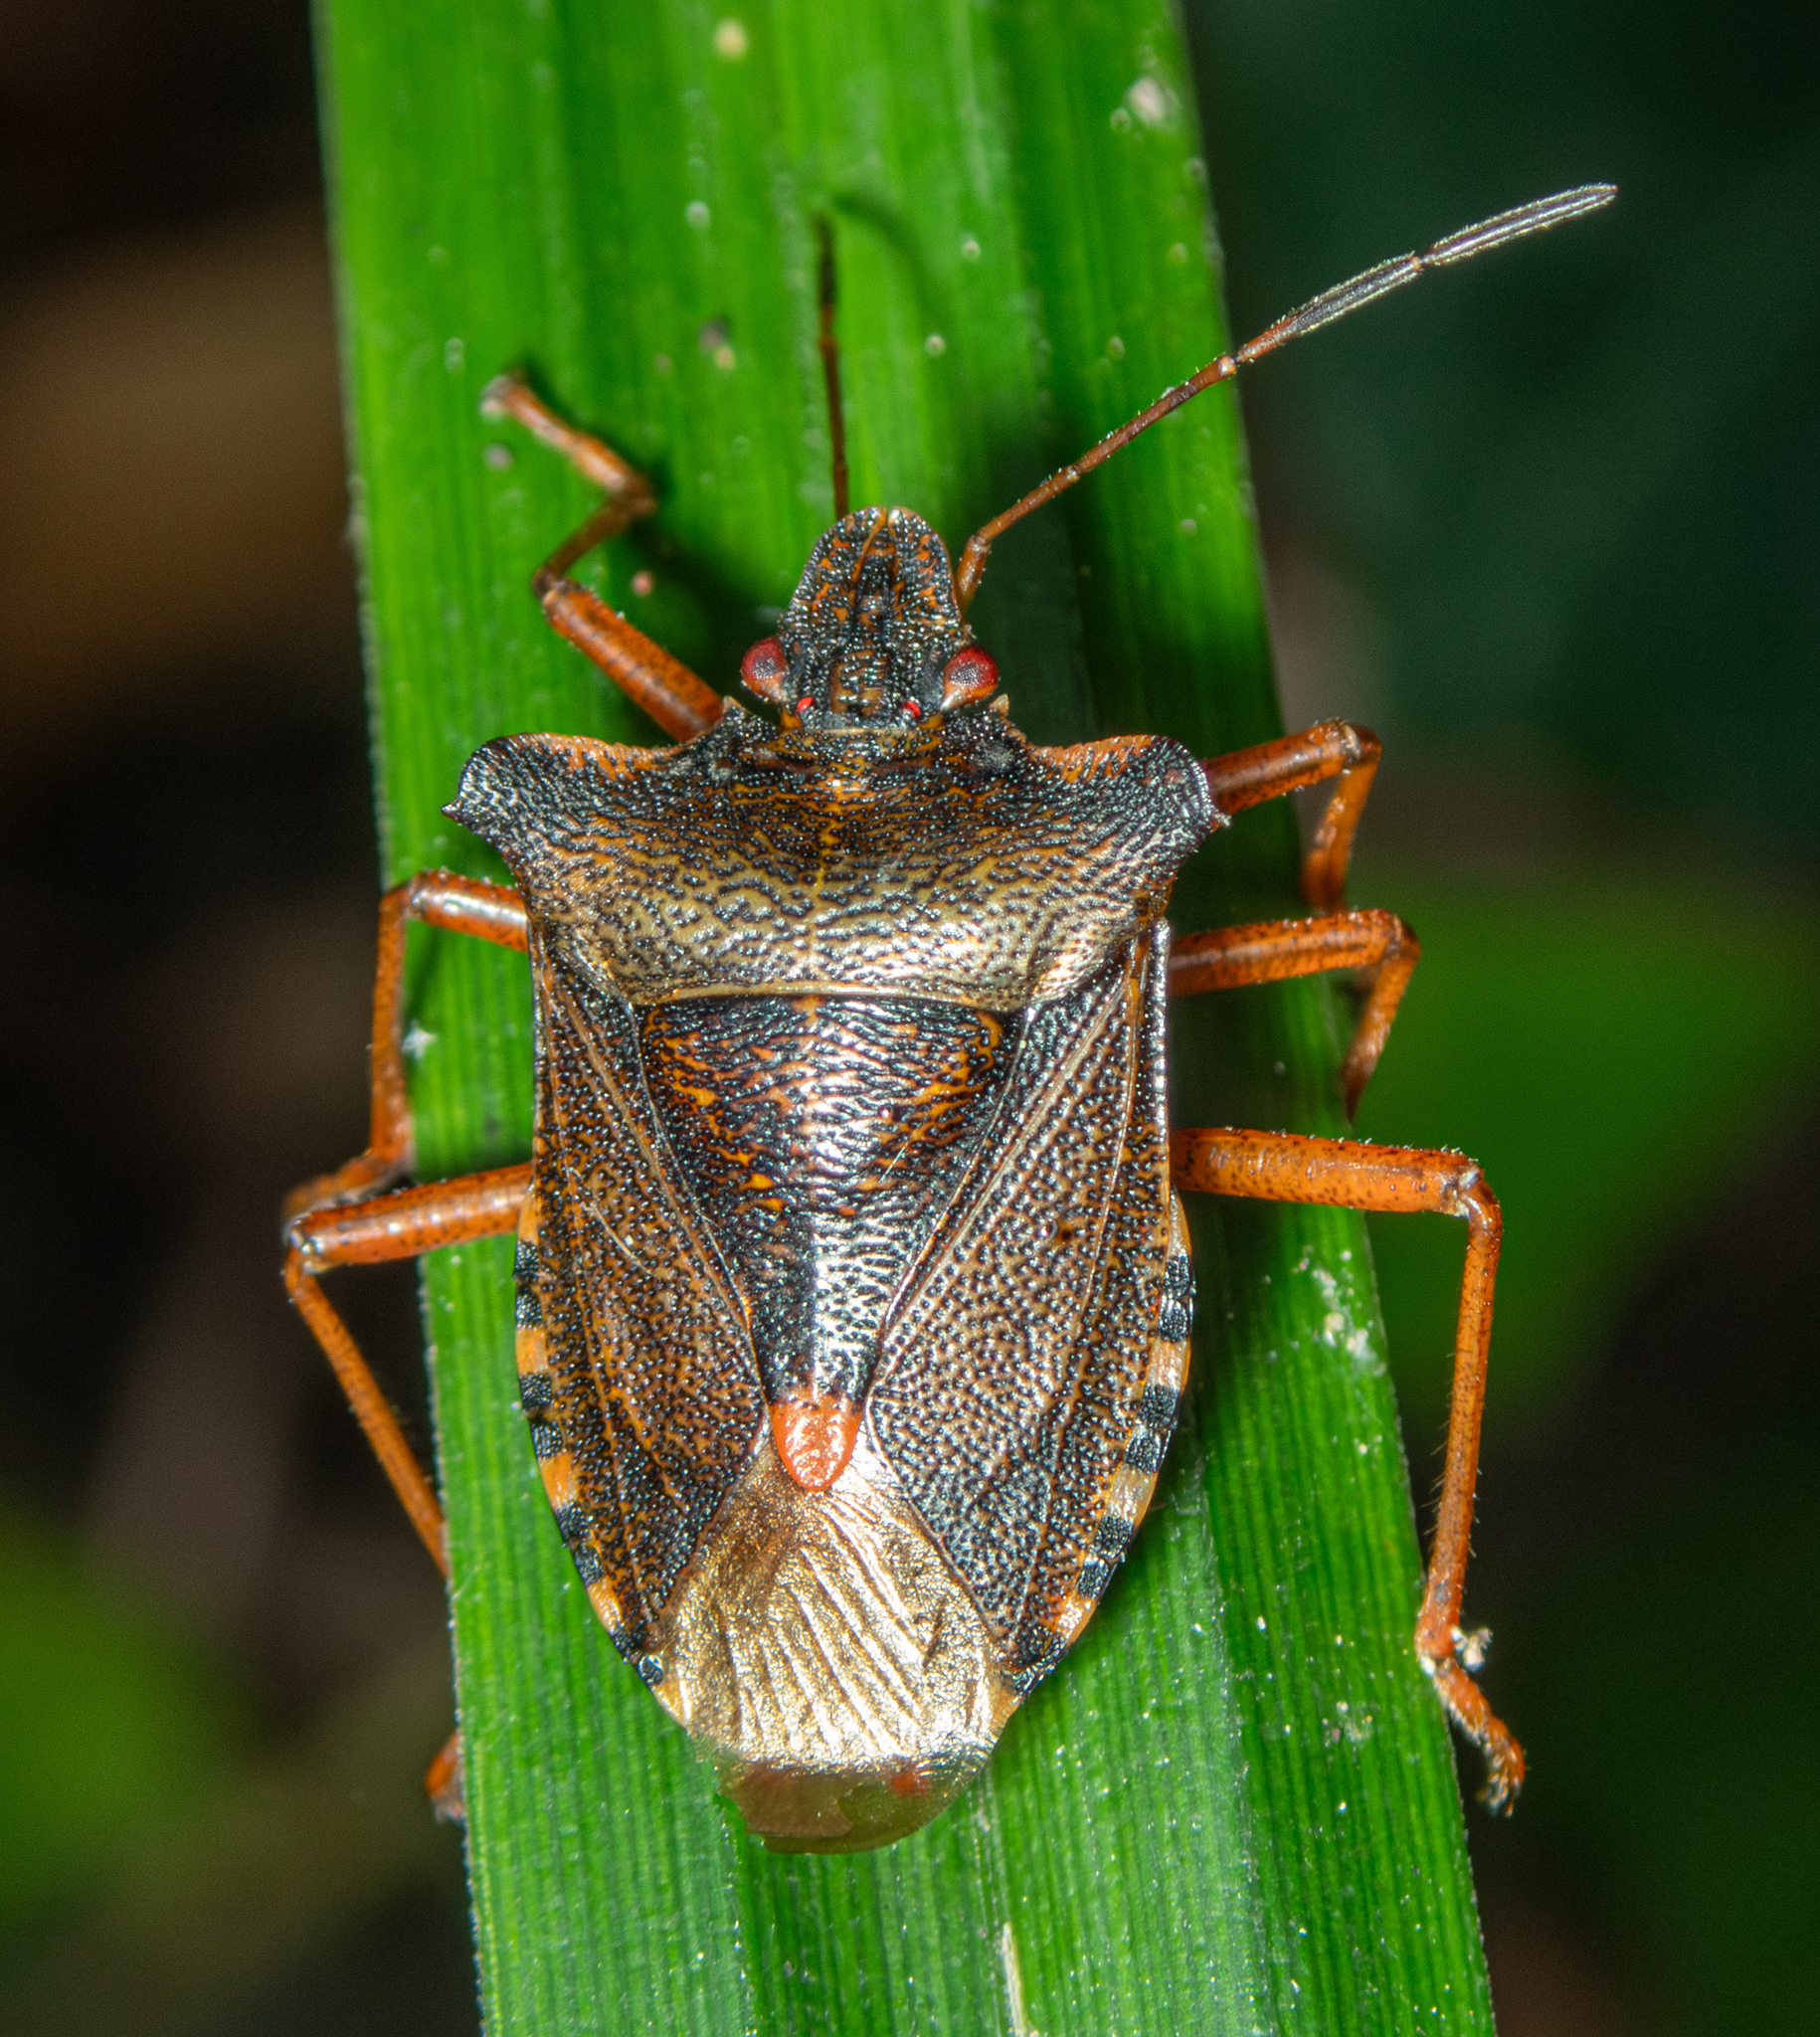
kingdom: Animalia
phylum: Arthropoda
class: Insecta
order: Hemiptera
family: Pentatomidae
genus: Pentatoma
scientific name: Pentatoma rufipes
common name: Forest bug
